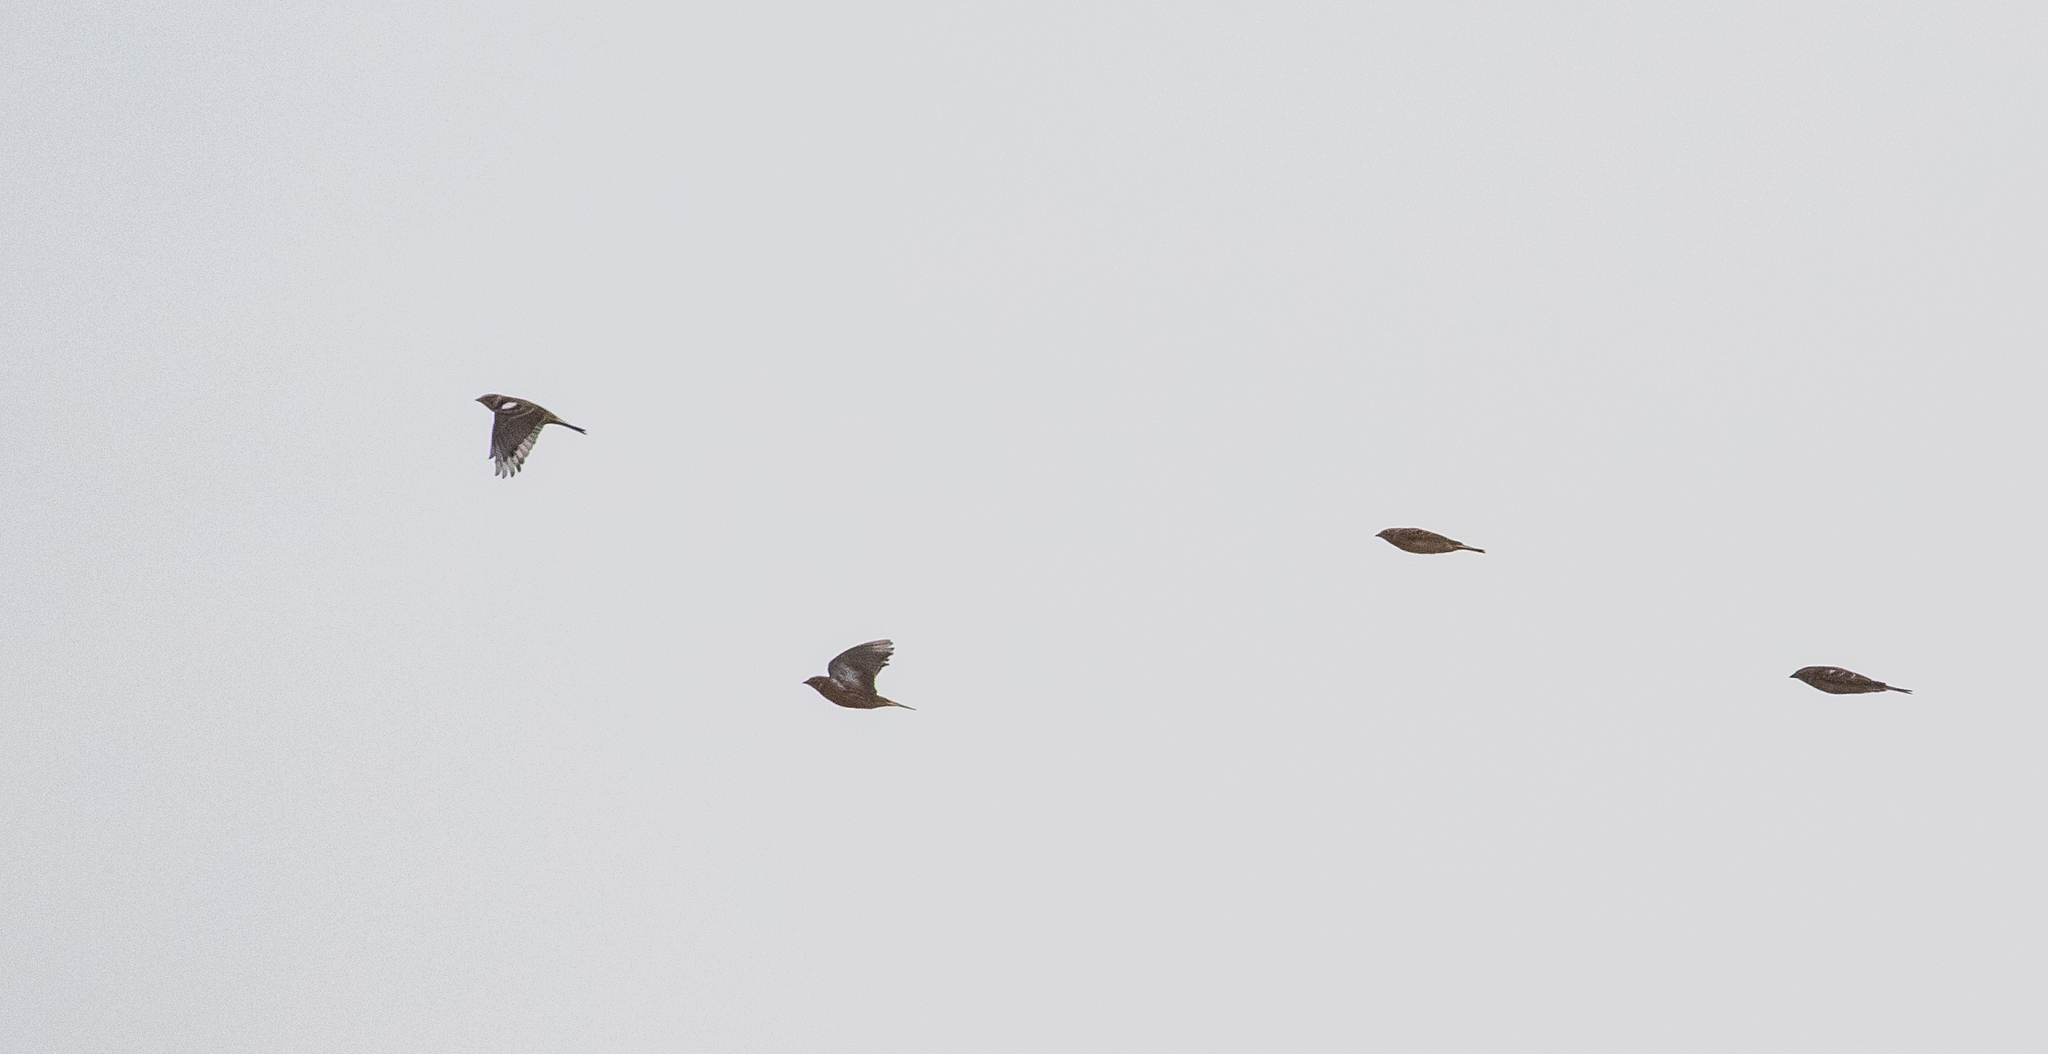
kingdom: Animalia
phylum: Chordata
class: Aves
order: Passeriformes
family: Calcariidae
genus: Calcarius
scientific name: Calcarius pictus
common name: Smith's longspur
